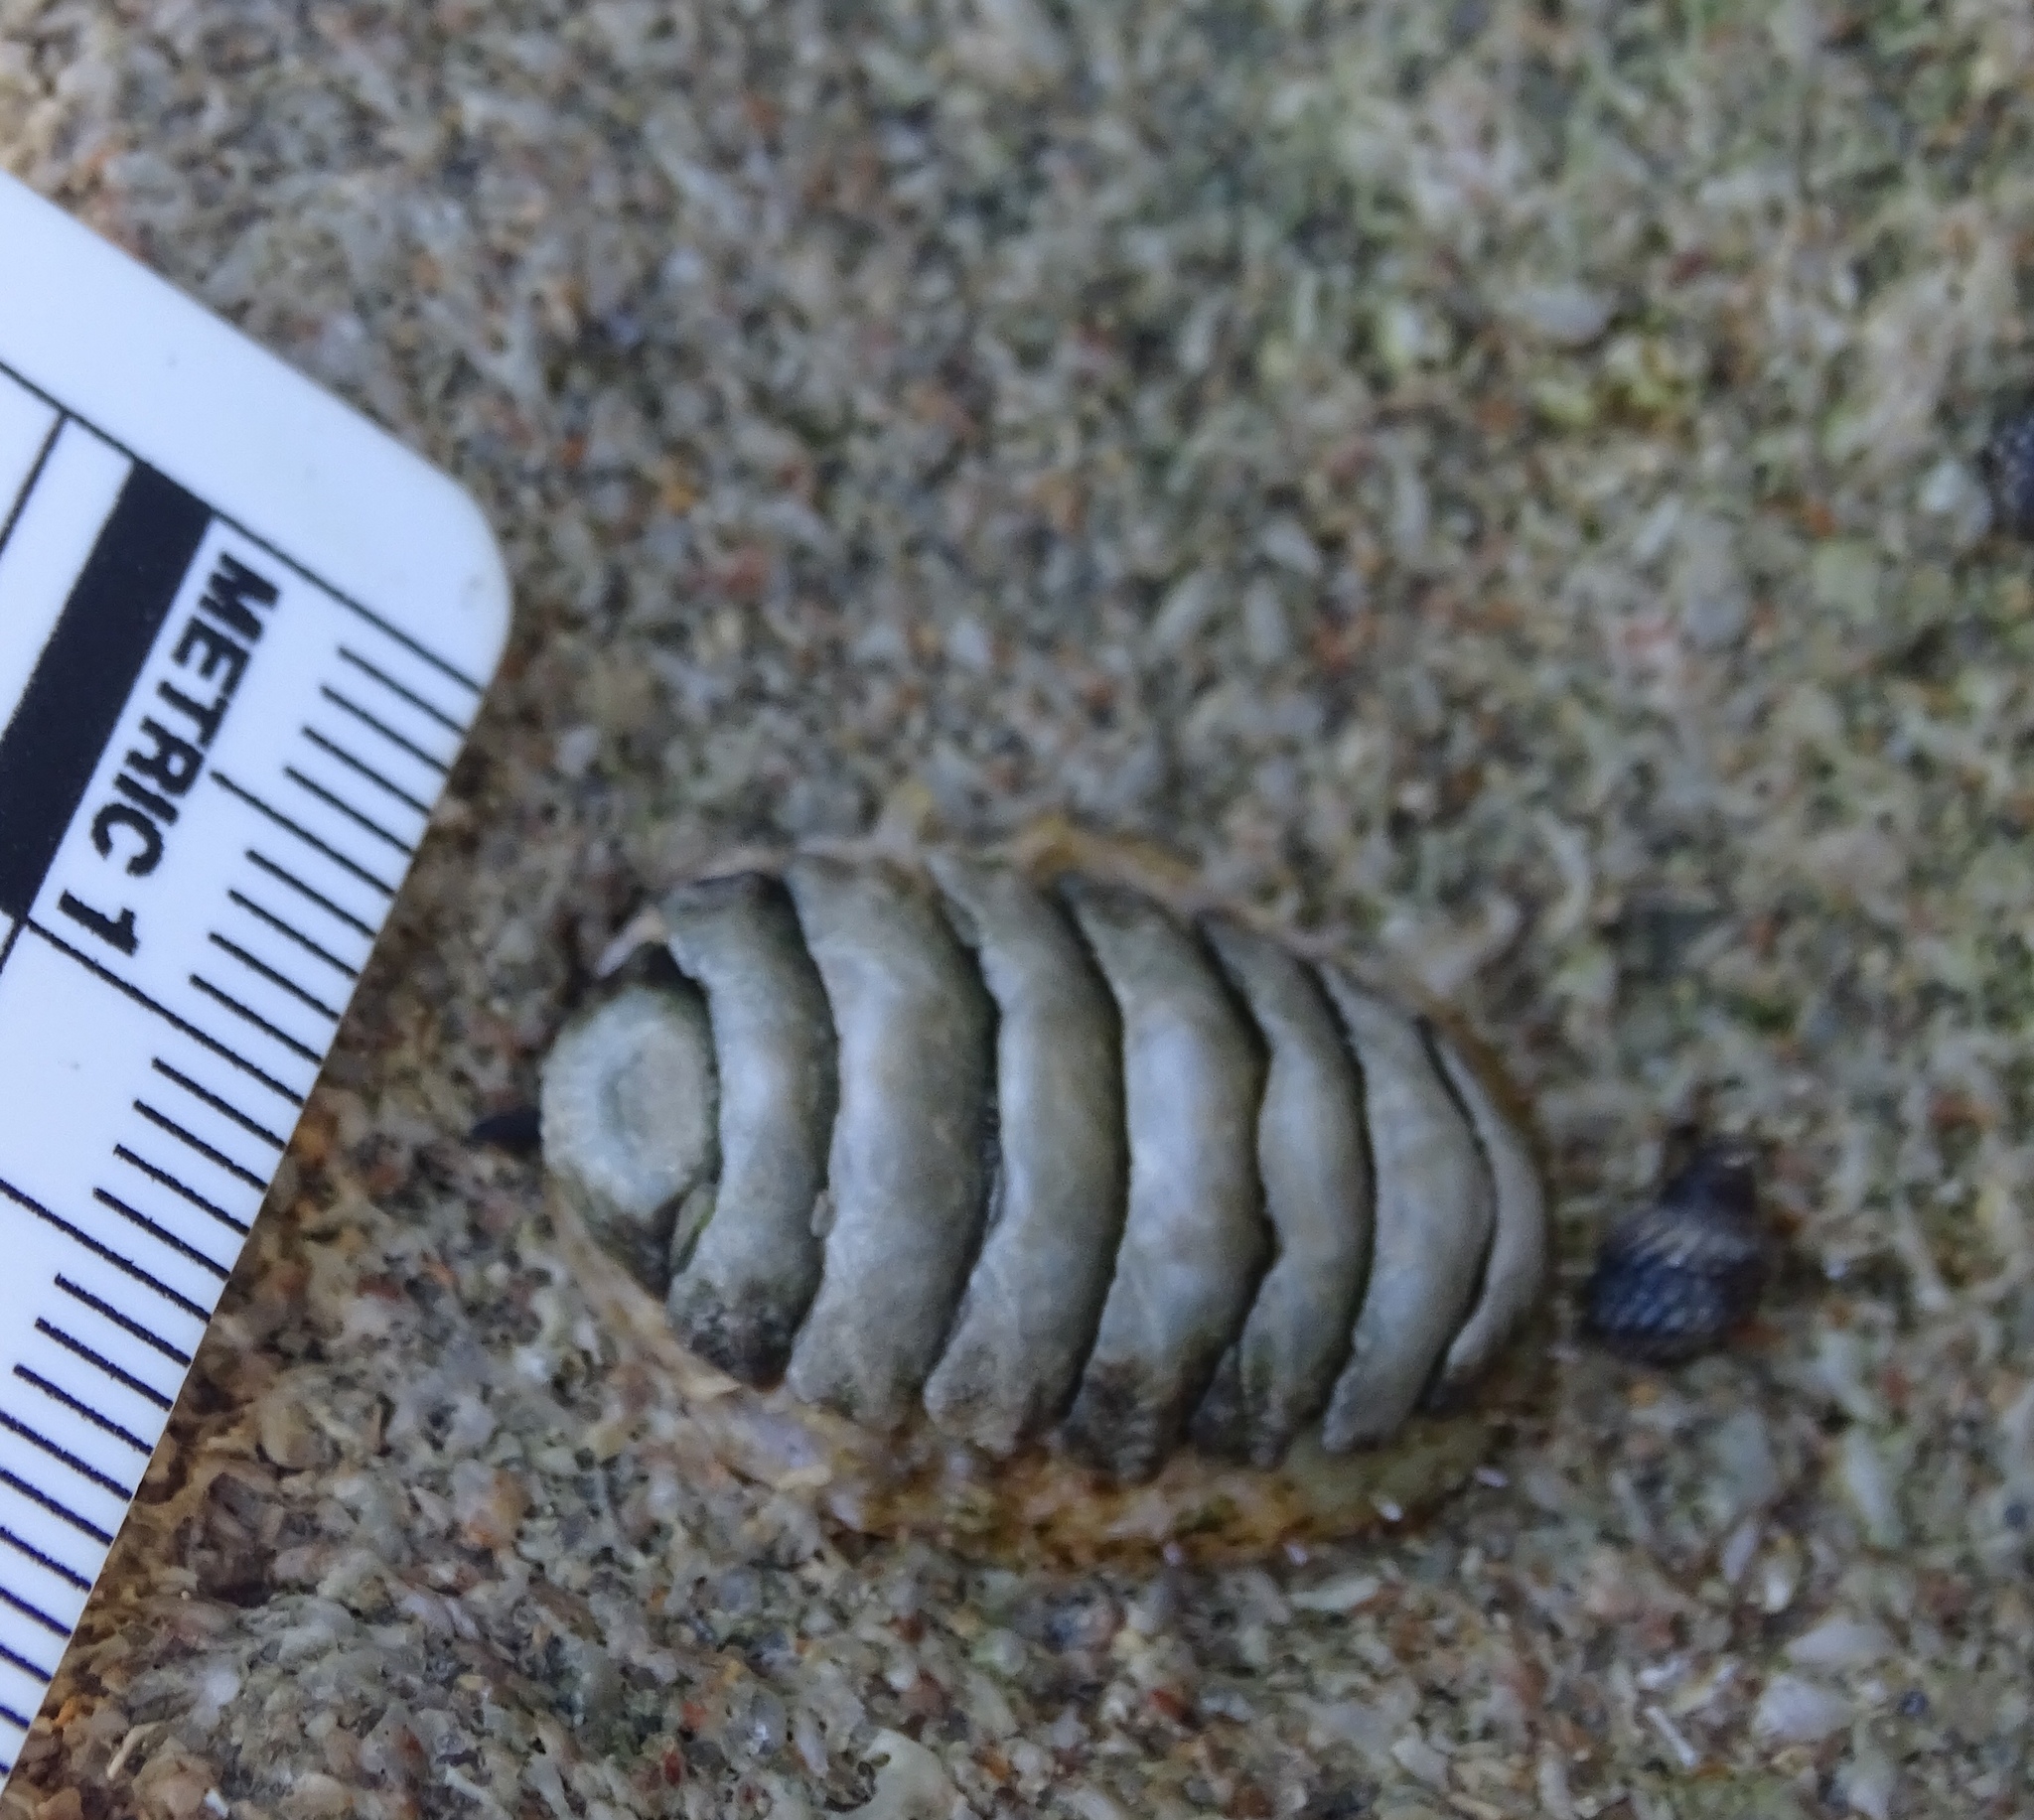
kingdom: Animalia
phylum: Mollusca
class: Polyplacophora
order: Chitonida
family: Chaetopleuridae
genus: Chaetopleura
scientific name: Chaetopleura apiculata
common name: Bee chiton
